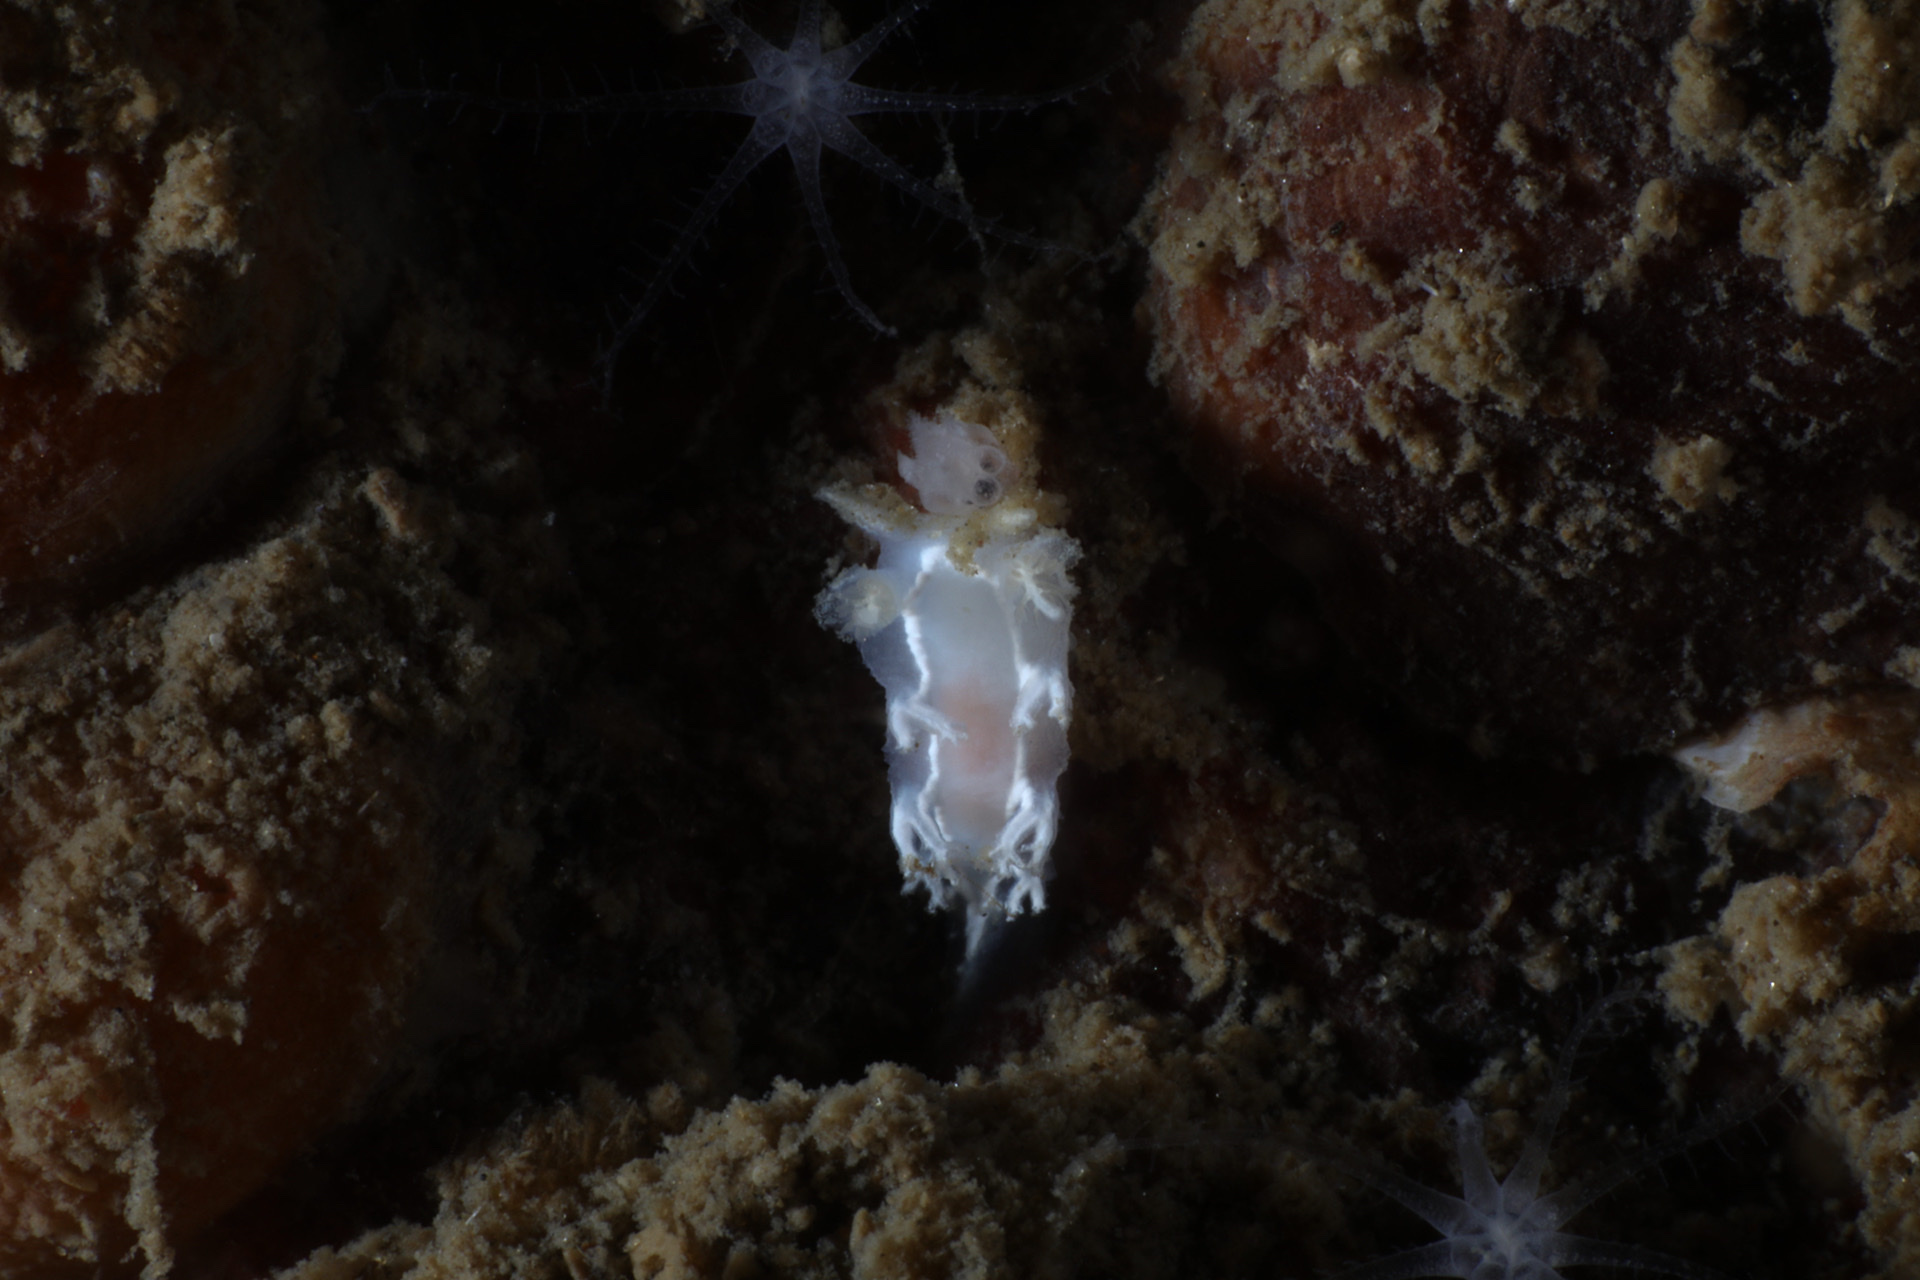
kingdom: Animalia
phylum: Mollusca
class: Gastropoda
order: Nudibranchia
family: Tritoniidae
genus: Duvaucelia
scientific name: Duvaucelia lineata
